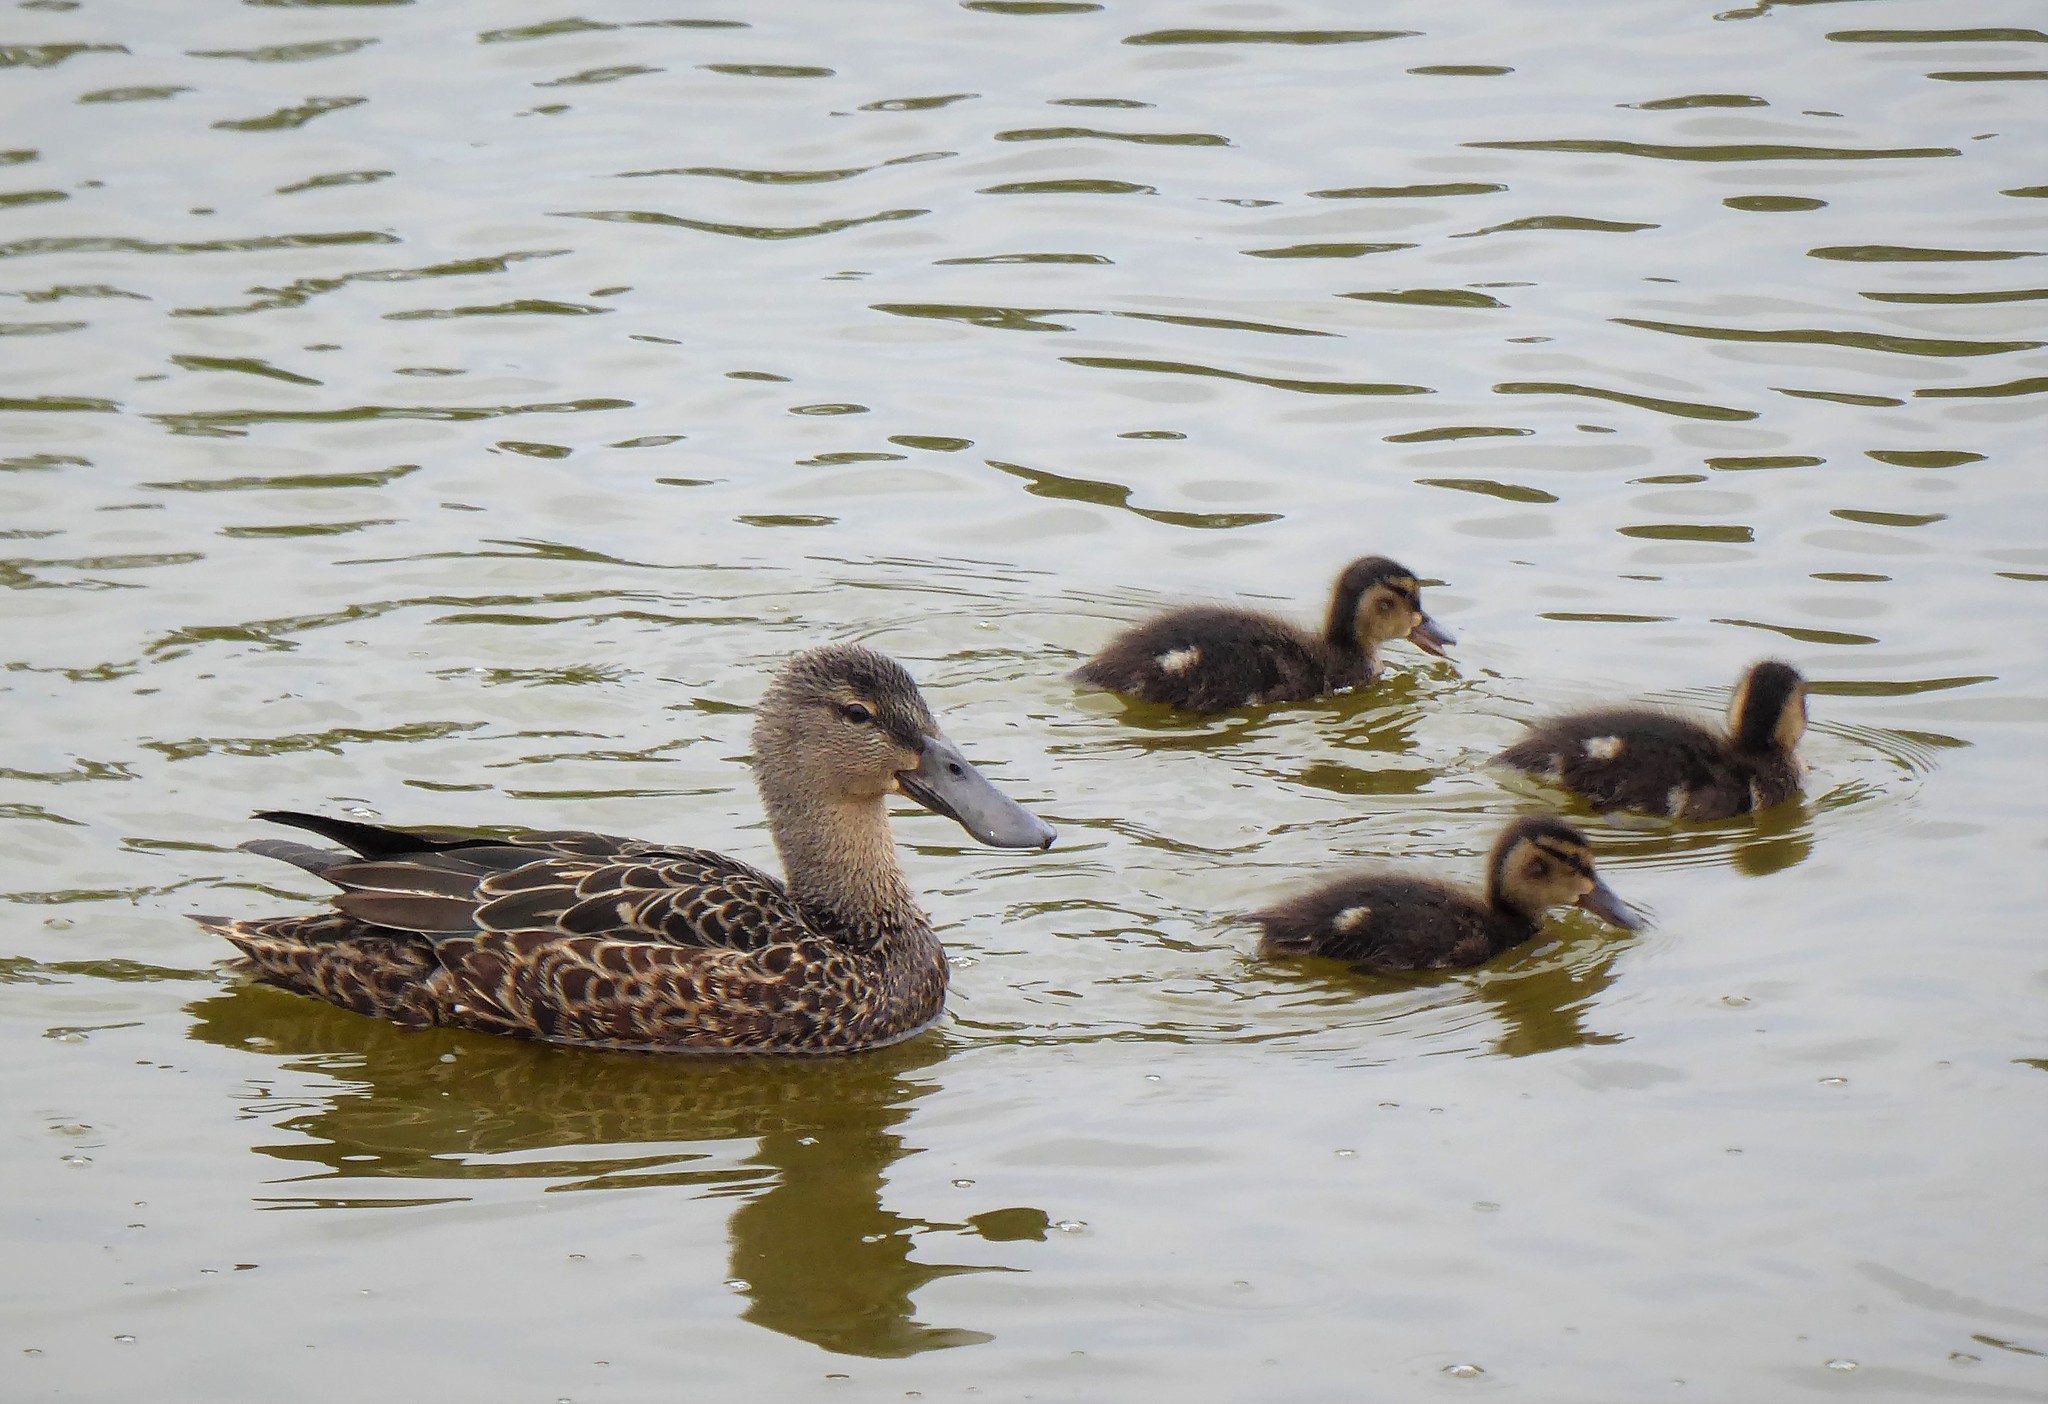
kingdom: Animalia
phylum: Chordata
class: Aves
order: Anseriformes
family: Anatidae
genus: Spatula
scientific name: Spatula rhynchotis
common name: Australian shoveler
